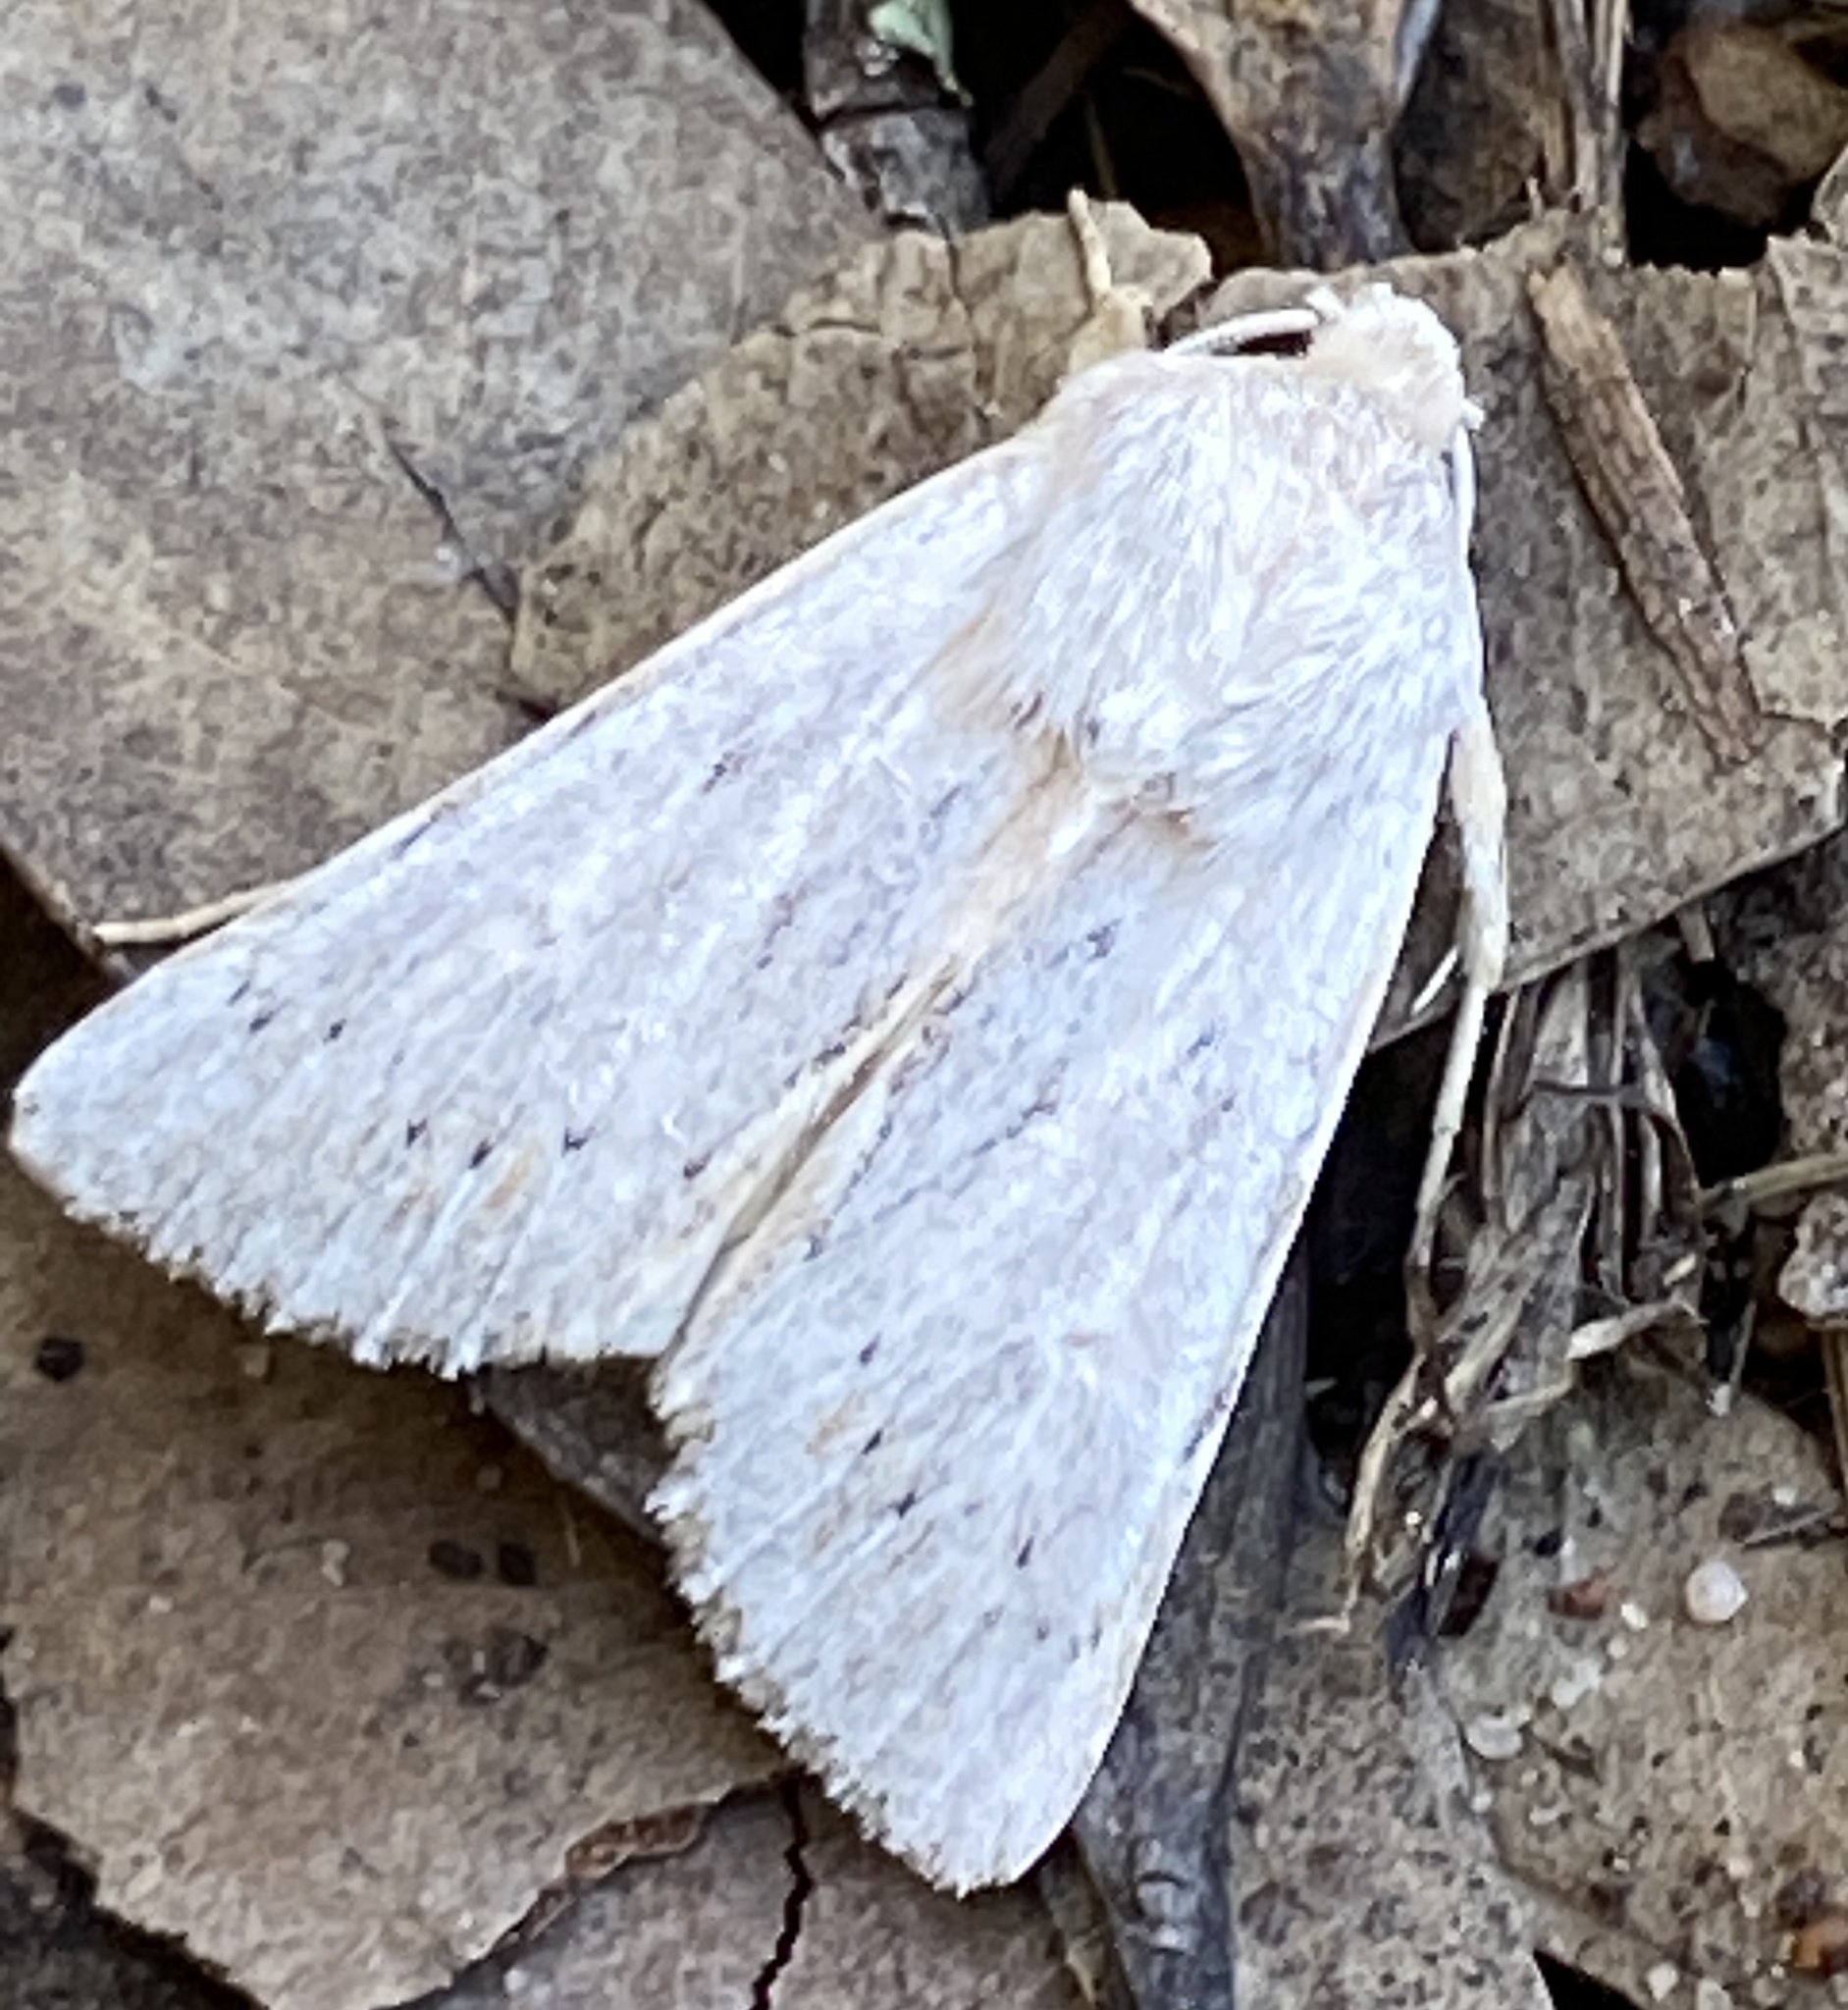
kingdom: Animalia
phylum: Arthropoda
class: Insecta
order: Lepidoptera
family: Noctuidae
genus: Sideridis
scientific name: Sideridis
